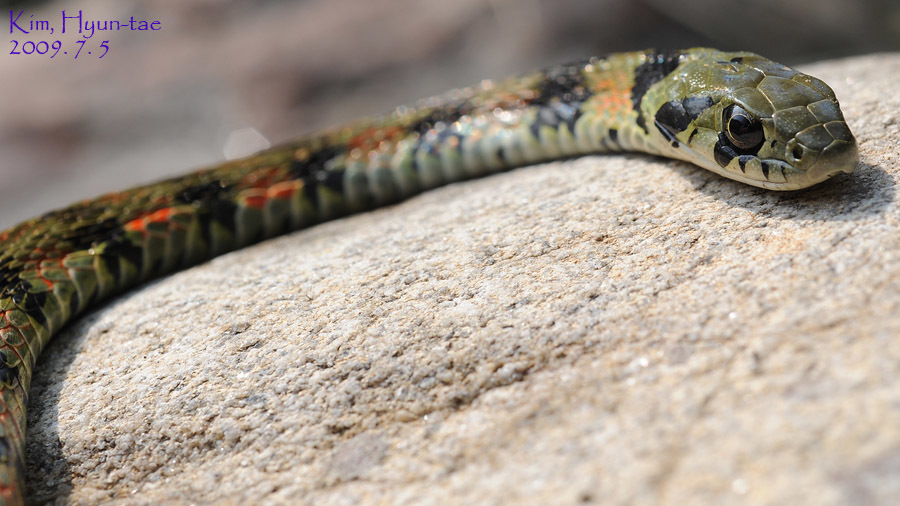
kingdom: Animalia
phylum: Chordata
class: Squamata
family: Colubridae
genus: Rhabdophis
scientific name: Rhabdophis tigrinus
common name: Tiger keelback
